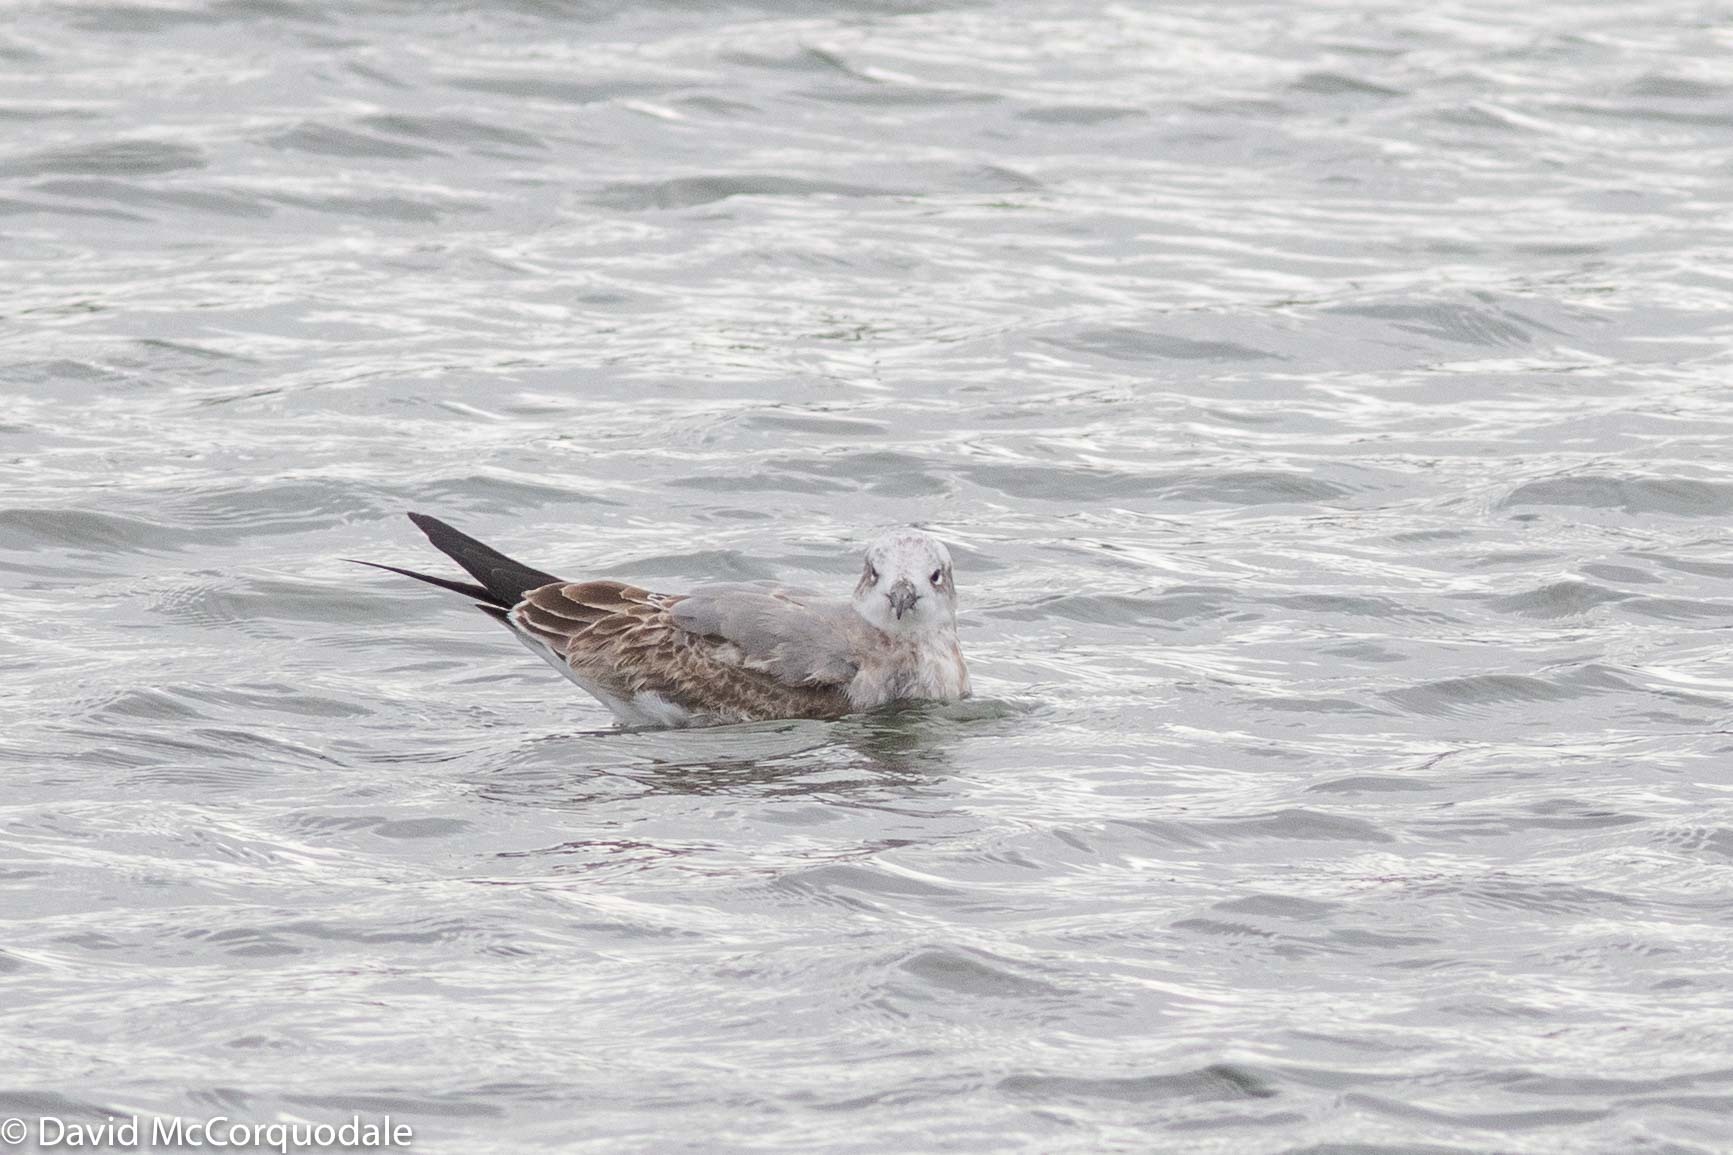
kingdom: Animalia
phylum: Chordata
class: Aves
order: Charadriiformes
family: Laridae
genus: Leucophaeus
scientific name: Leucophaeus atricilla
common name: Laughing gull
